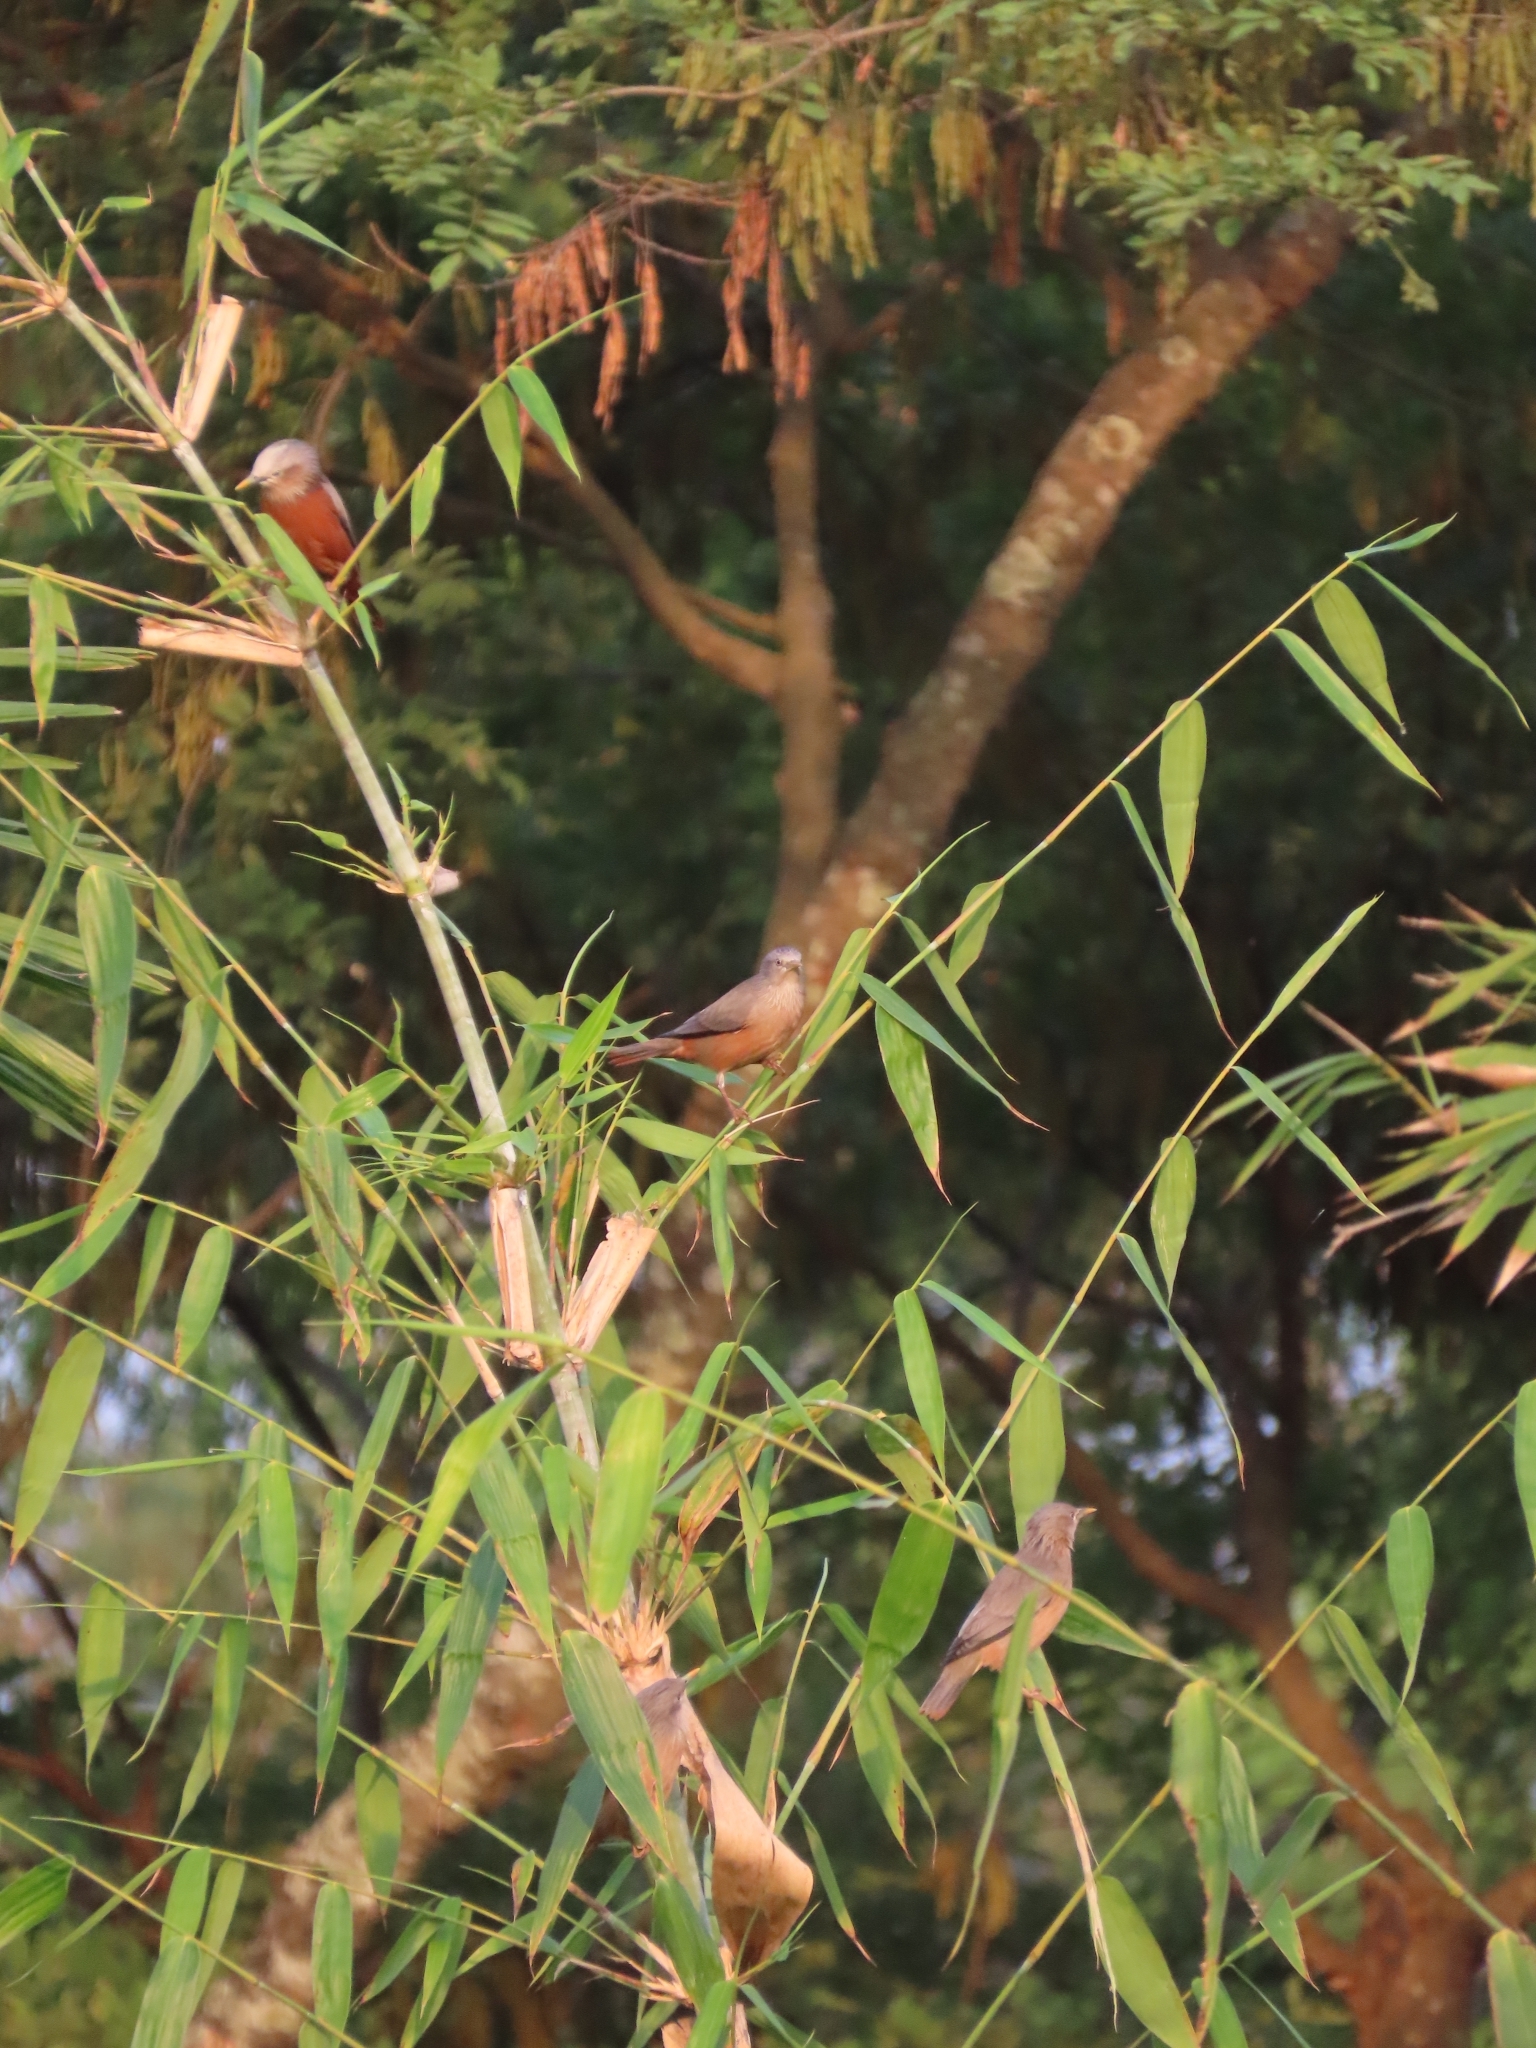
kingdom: Animalia
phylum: Chordata
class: Aves
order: Passeriformes
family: Sturnidae
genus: Sturnia
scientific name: Sturnia malabarica
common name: Chestnut-tailed starling
